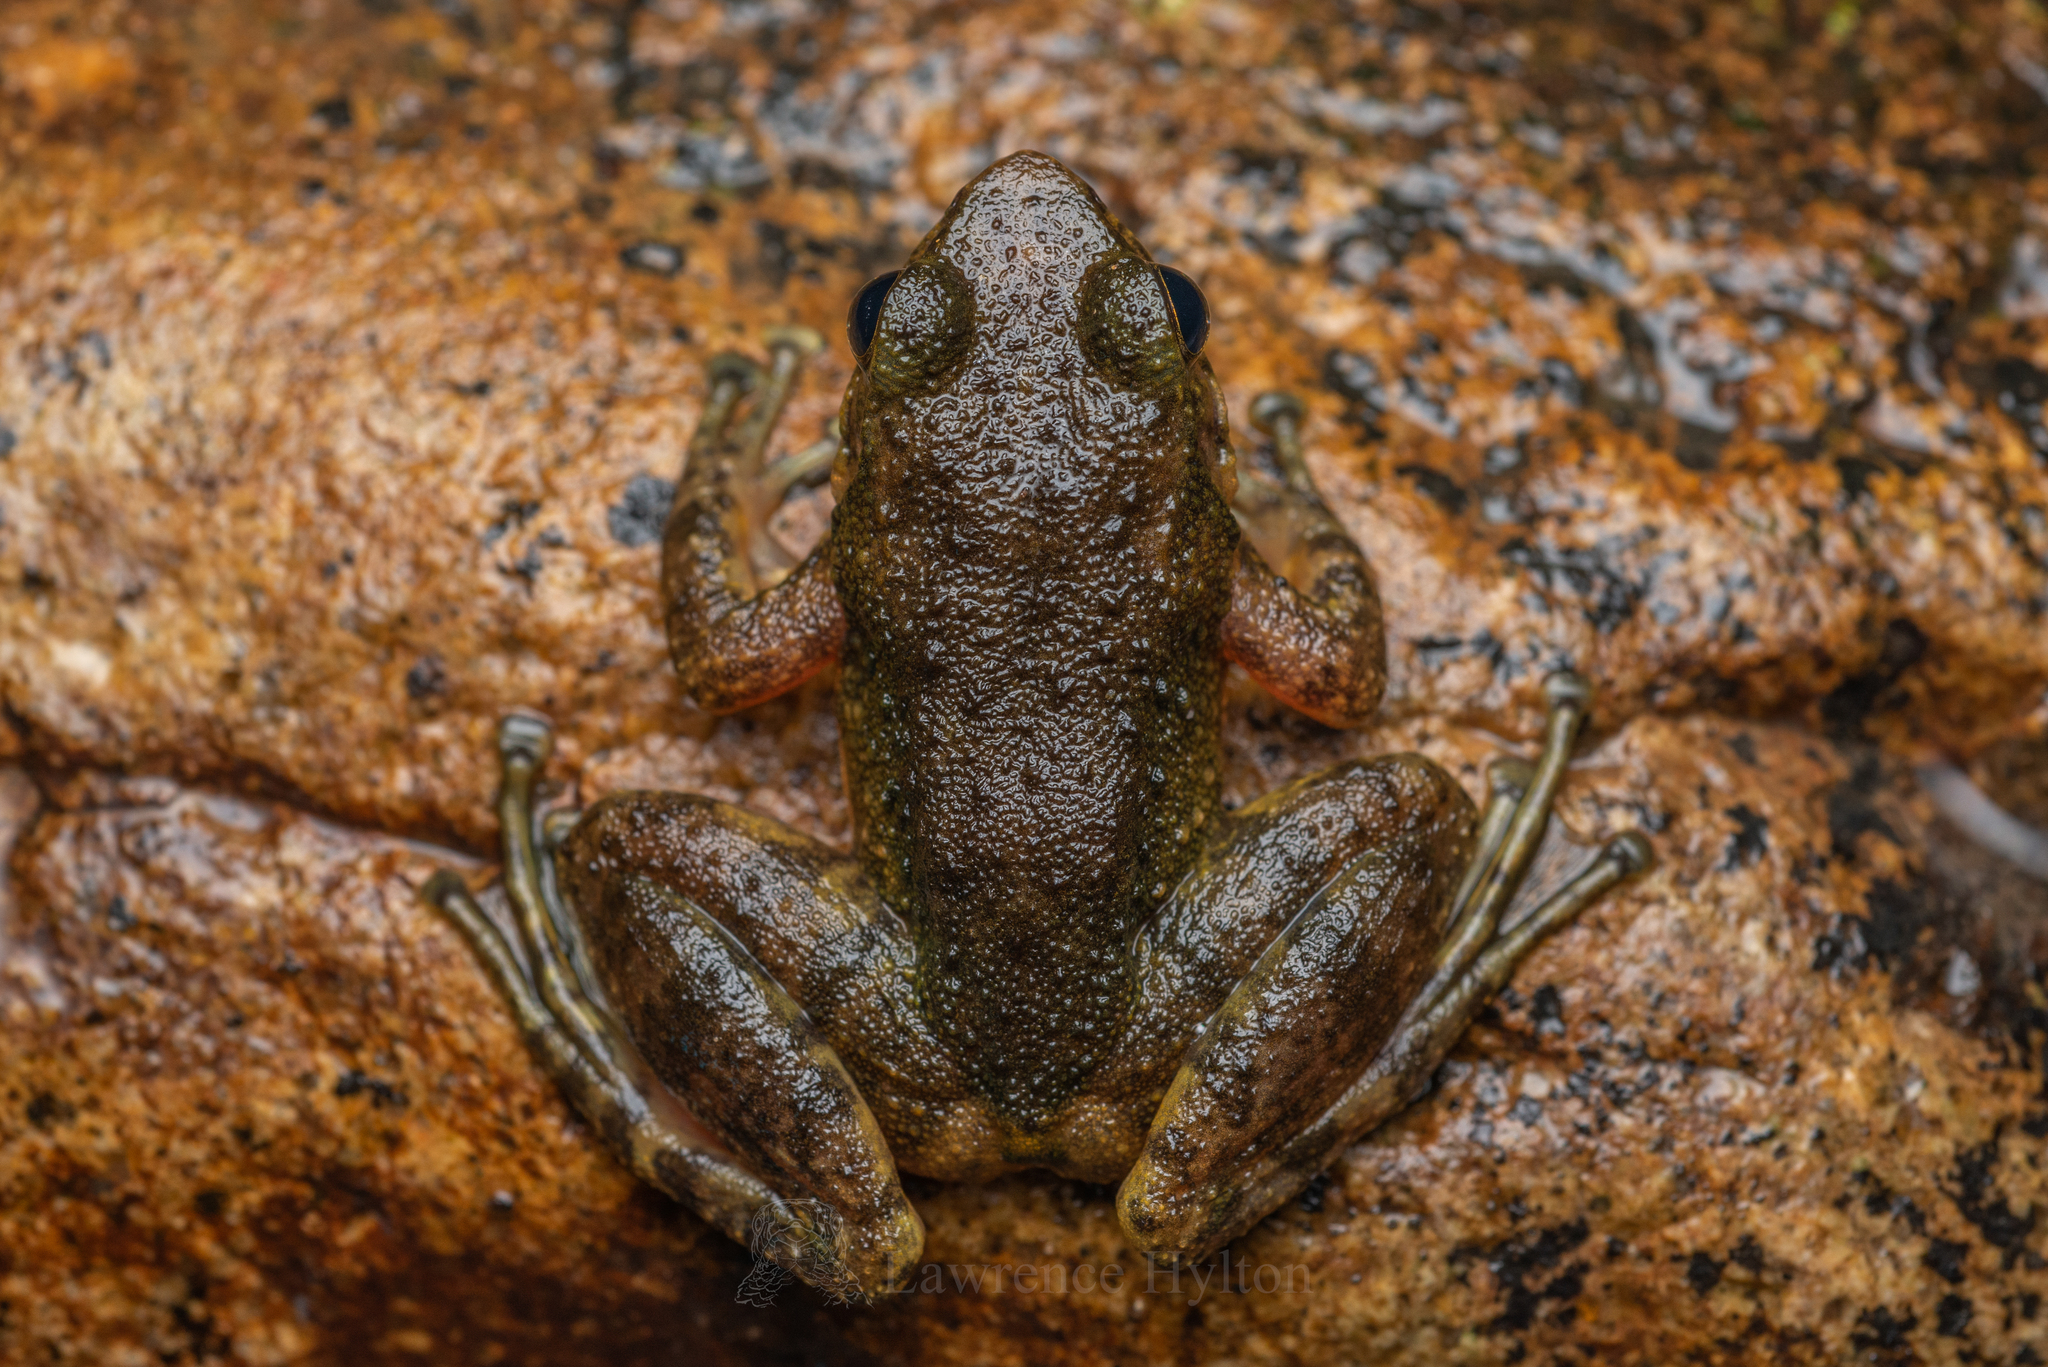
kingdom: Animalia
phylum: Chordata
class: Amphibia
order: Anura
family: Ranidae
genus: Amolops
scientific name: Amolops albispinus
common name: White-spined cascade frog
